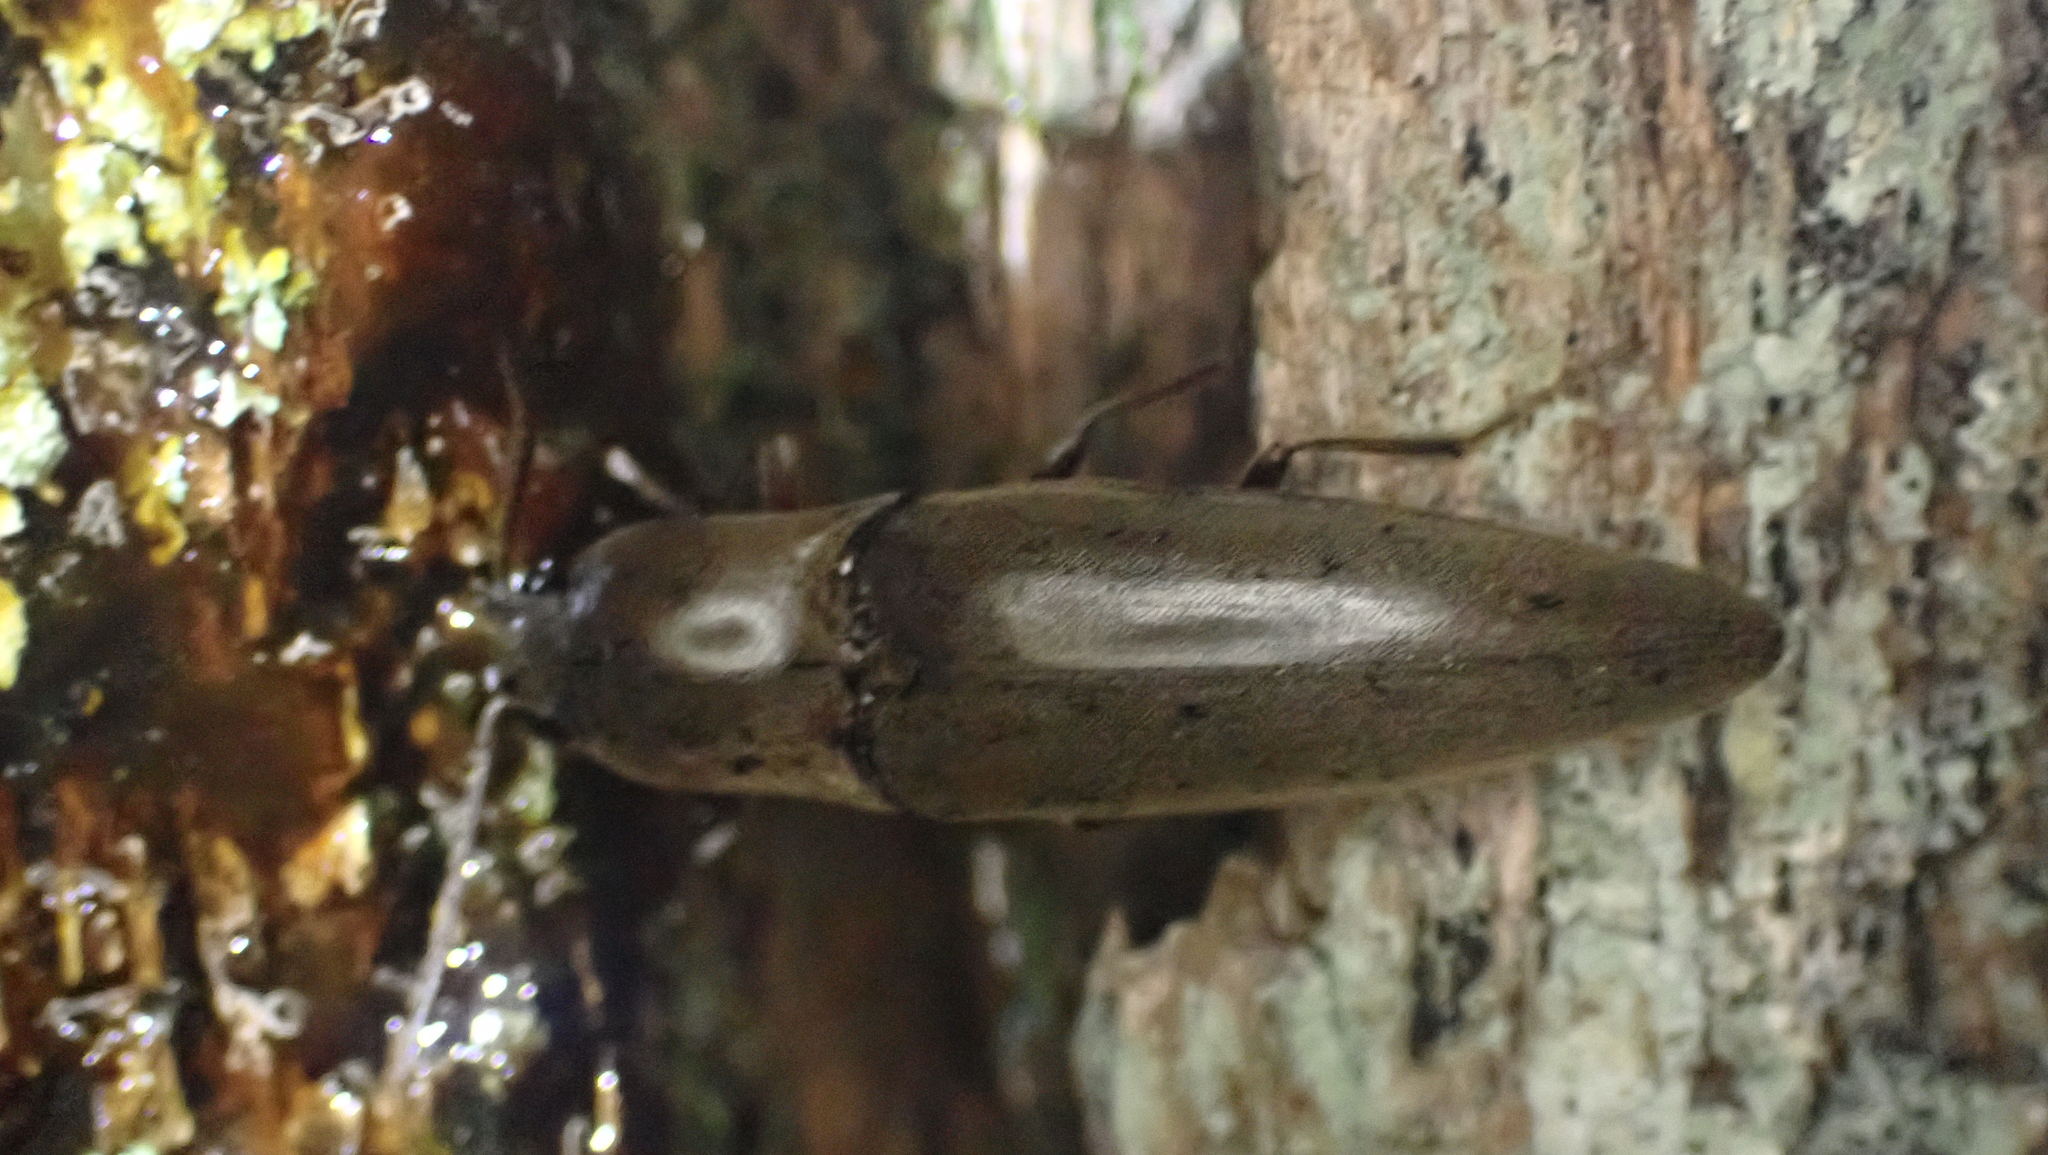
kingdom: Animalia
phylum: Arthropoda
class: Insecta
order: Coleoptera
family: Elateridae
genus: Orthostethus
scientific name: Orthostethus infuscatus
